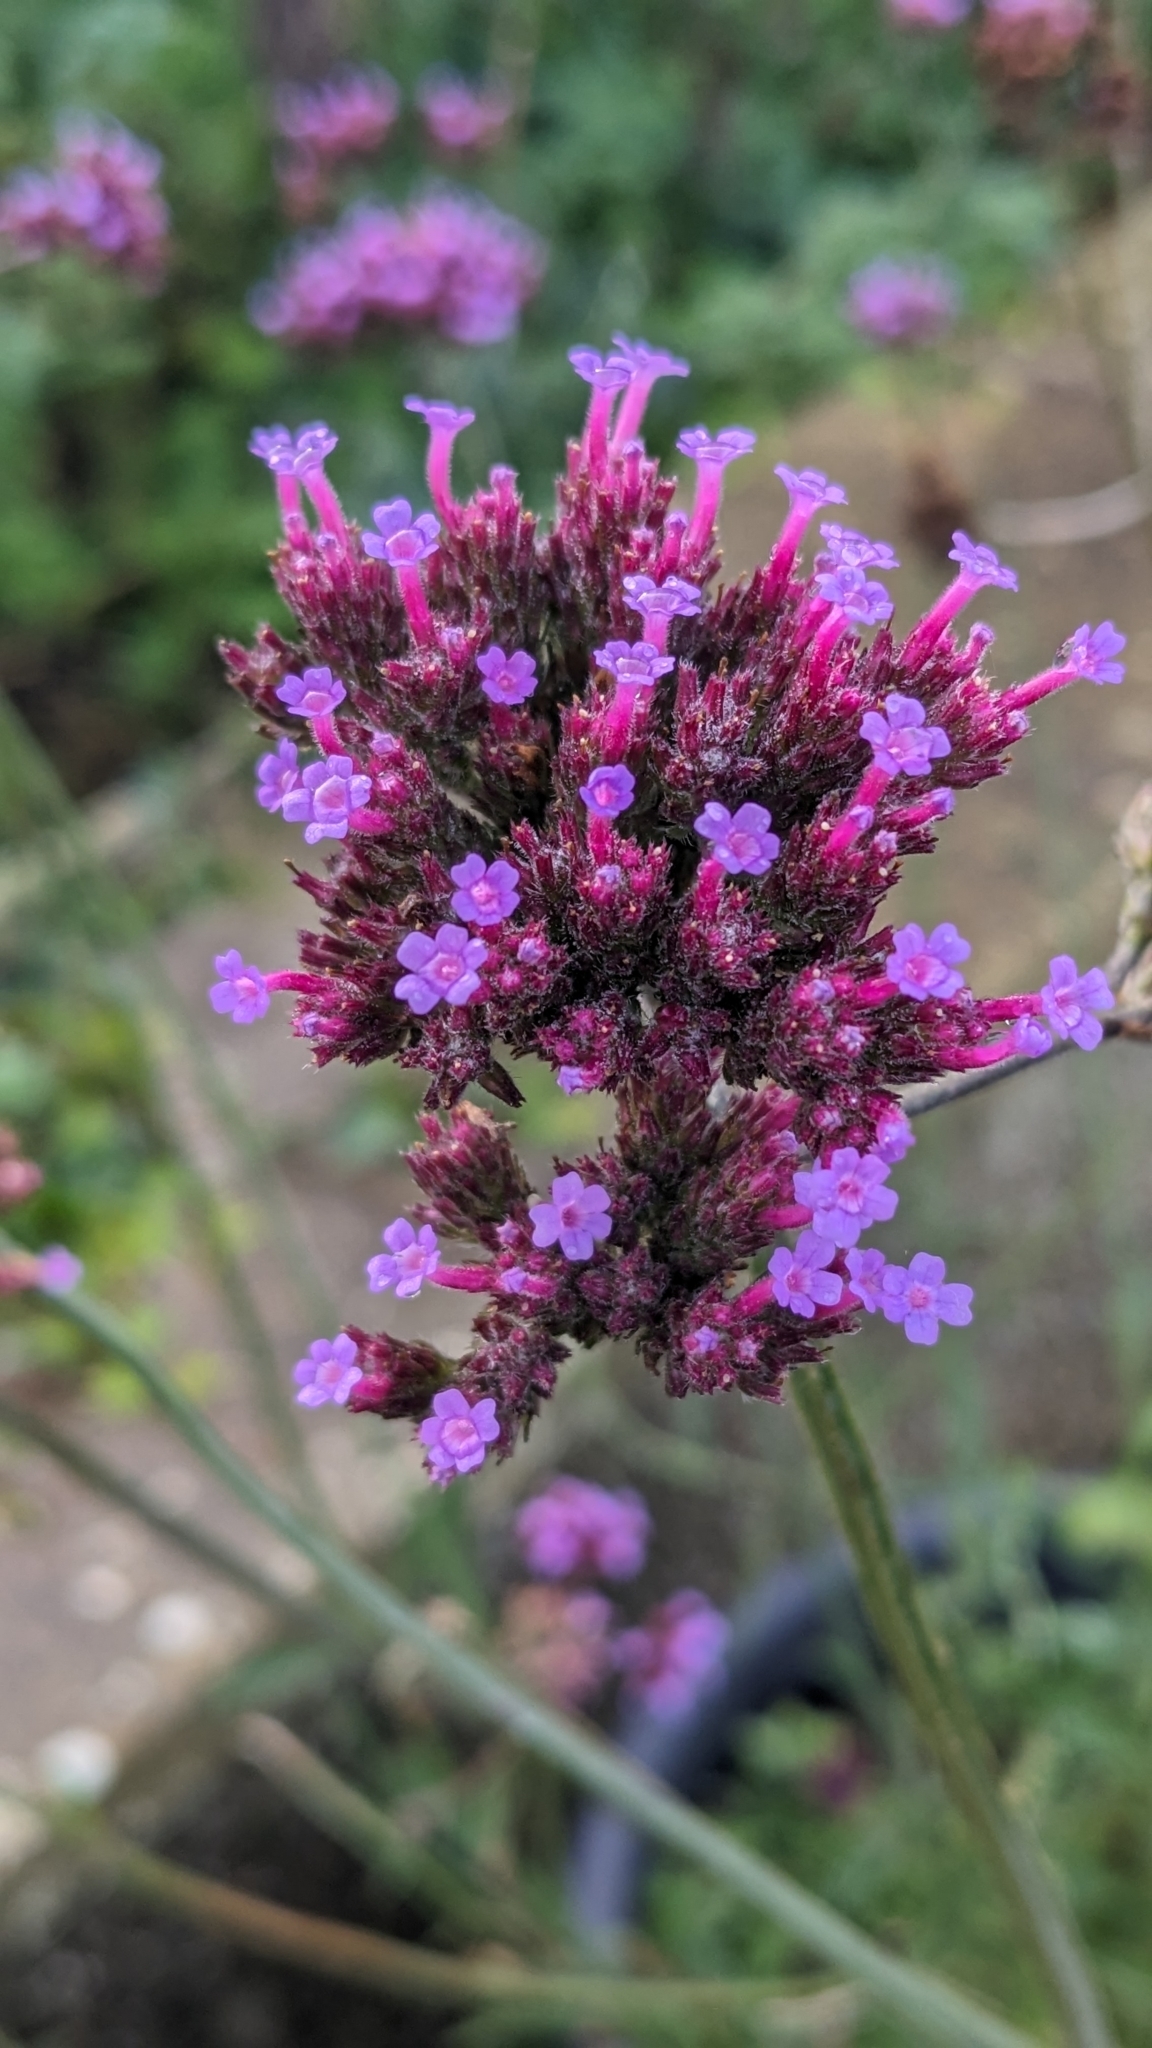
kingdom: Plantae
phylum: Tracheophyta
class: Magnoliopsida
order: Lamiales
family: Verbenaceae
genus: Verbena
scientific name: Verbena bonariensis
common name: Purpletop vervain
